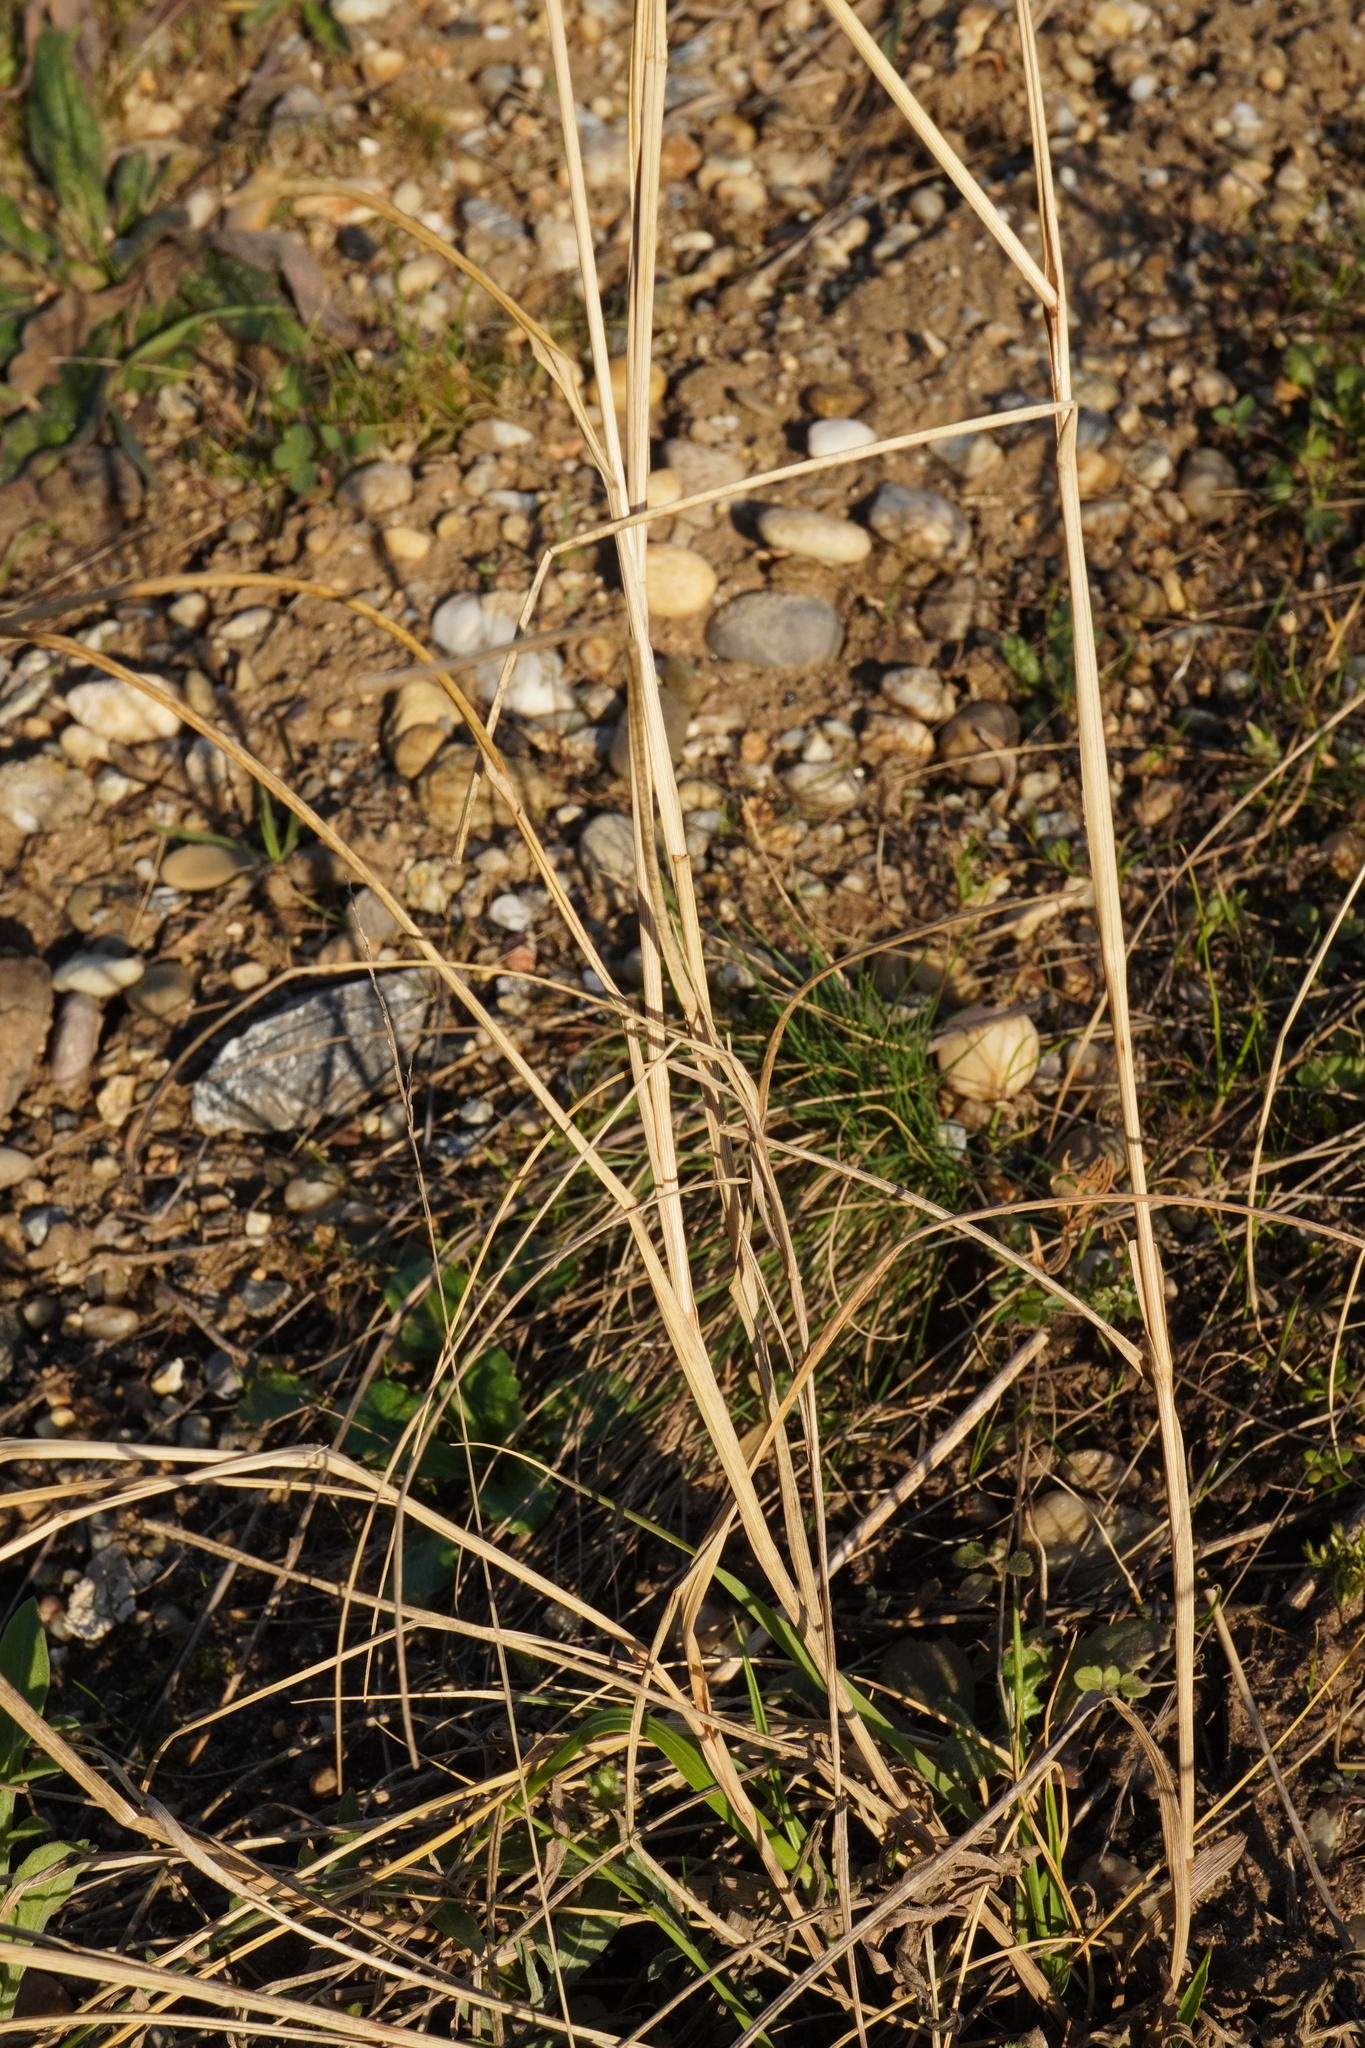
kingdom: Plantae
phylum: Tracheophyta
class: Liliopsida
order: Poales
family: Poaceae
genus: Melica
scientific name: Melica transsilvanica
